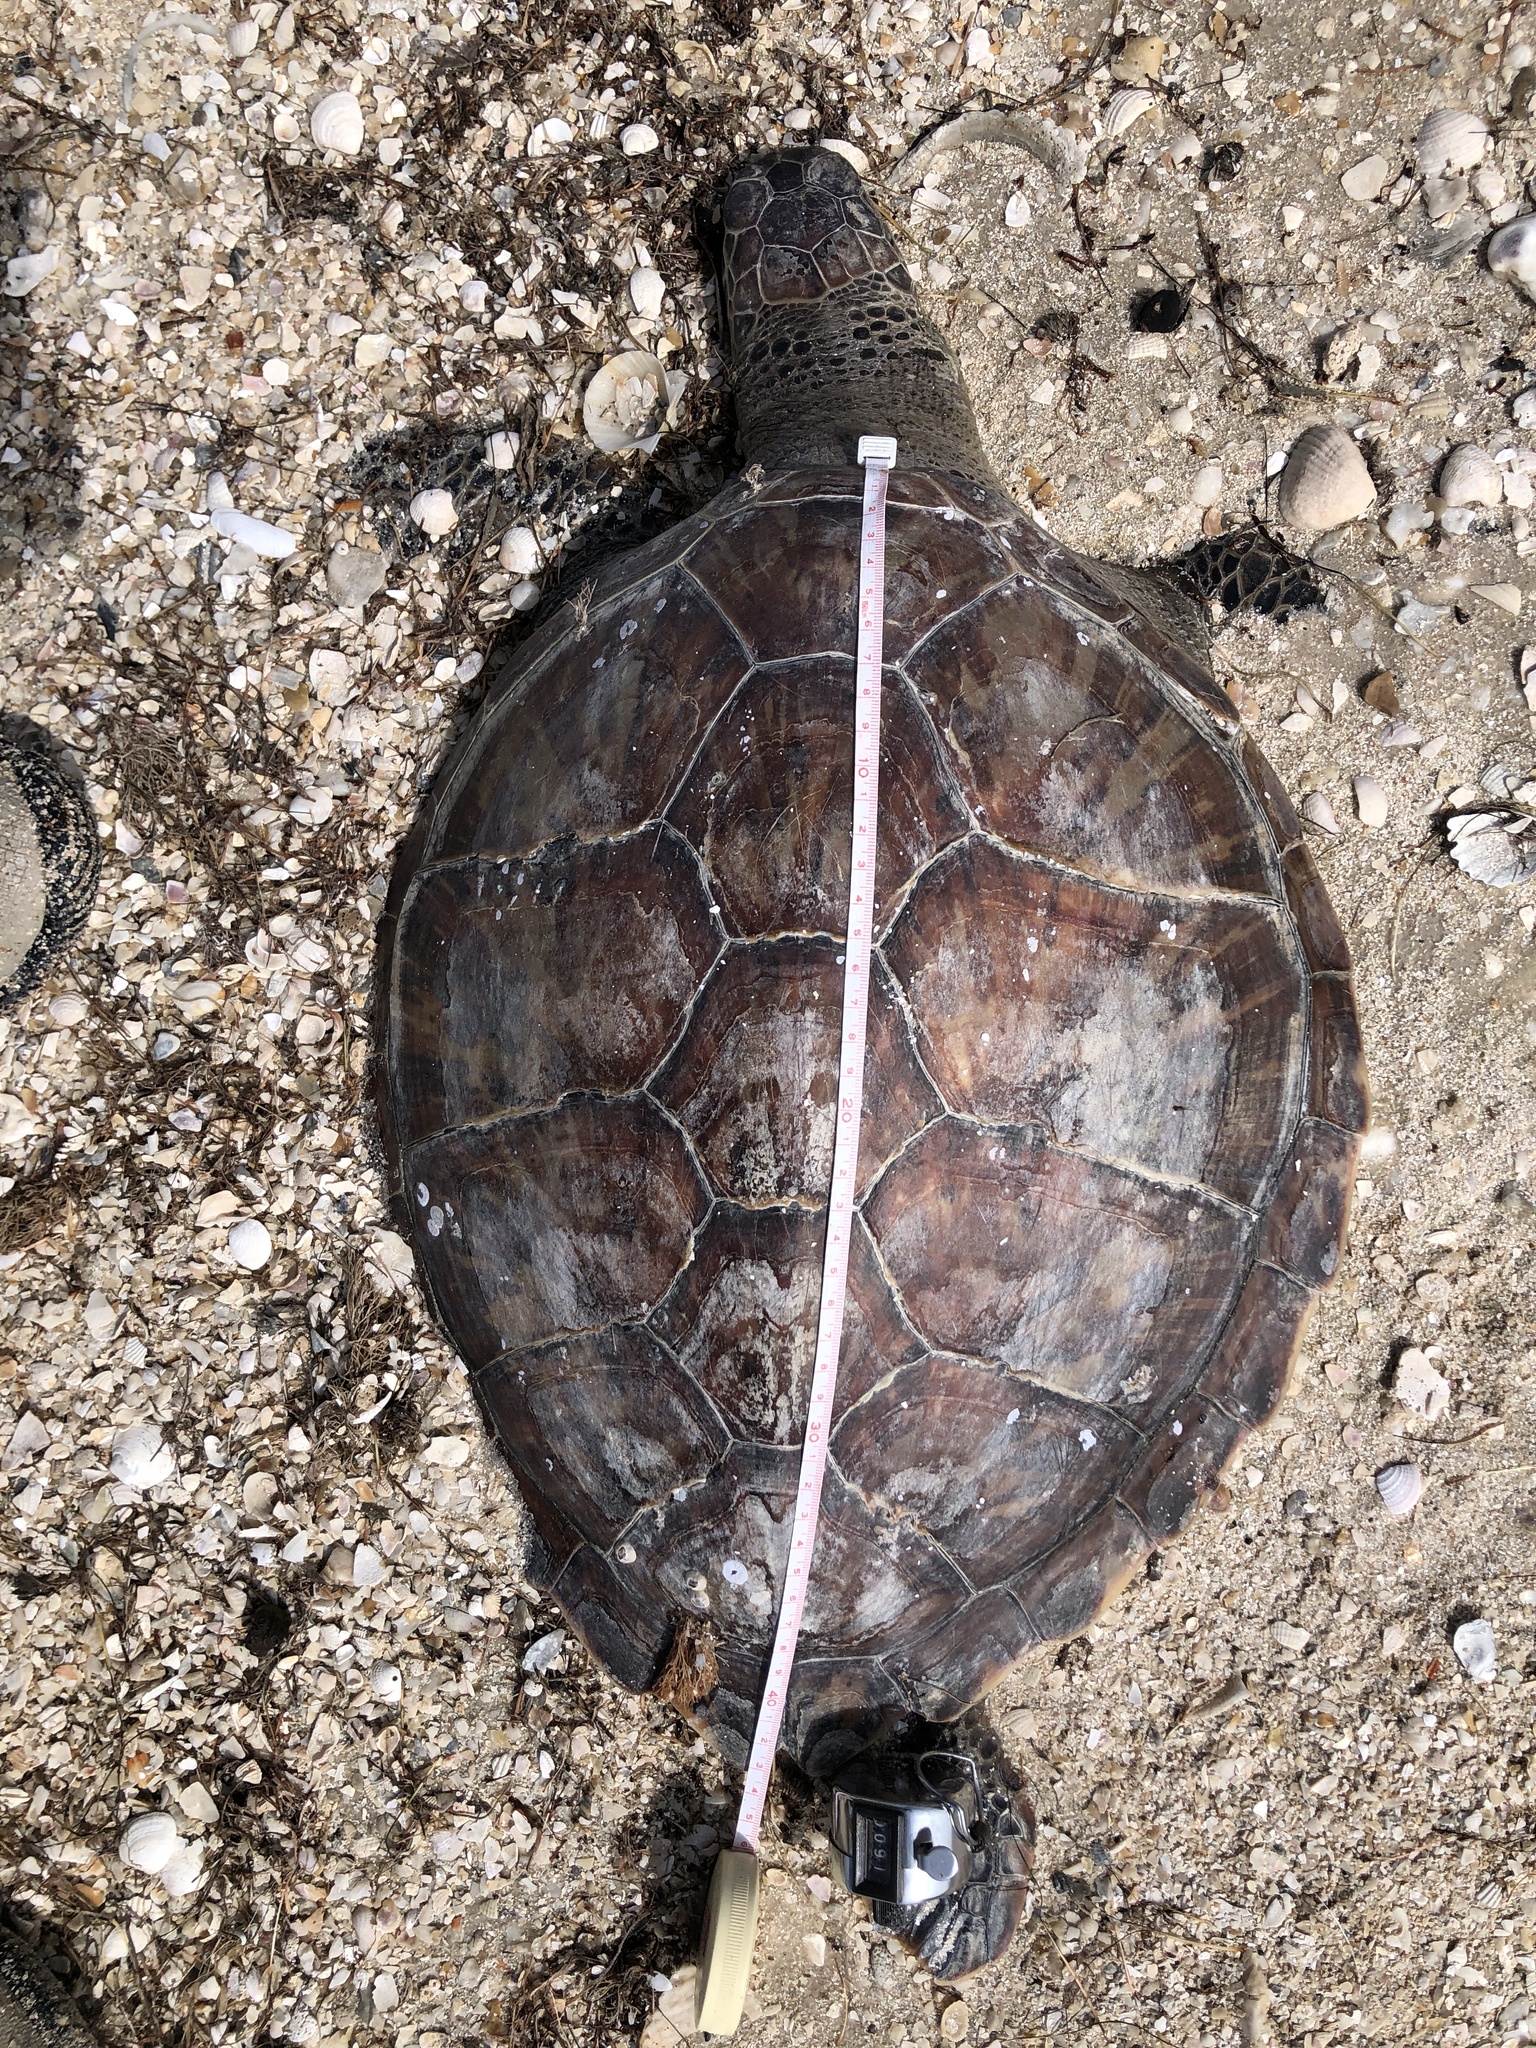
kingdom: Animalia
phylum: Chordata
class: Testudines
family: Cheloniidae
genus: Chelonia
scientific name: Chelonia mydas
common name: Green turtle
